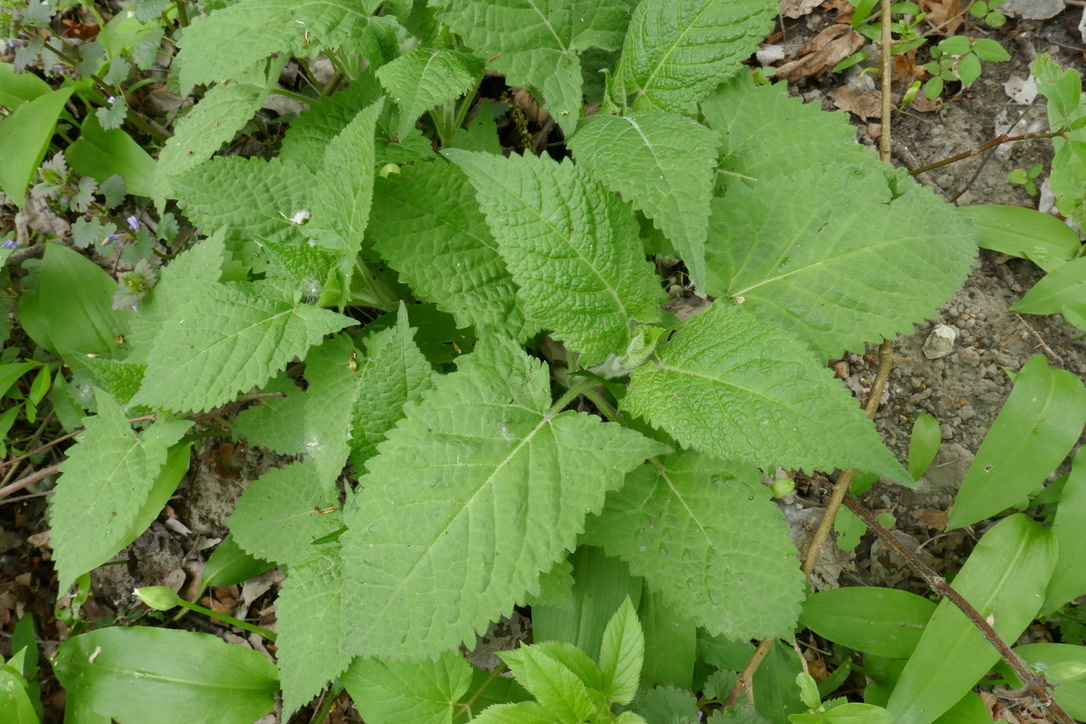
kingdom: Plantae
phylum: Tracheophyta
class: Magnoliopsida
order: Lamiales
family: Lamiaceae
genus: Salvia
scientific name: Salvia glutinosa
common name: Sticky clary
